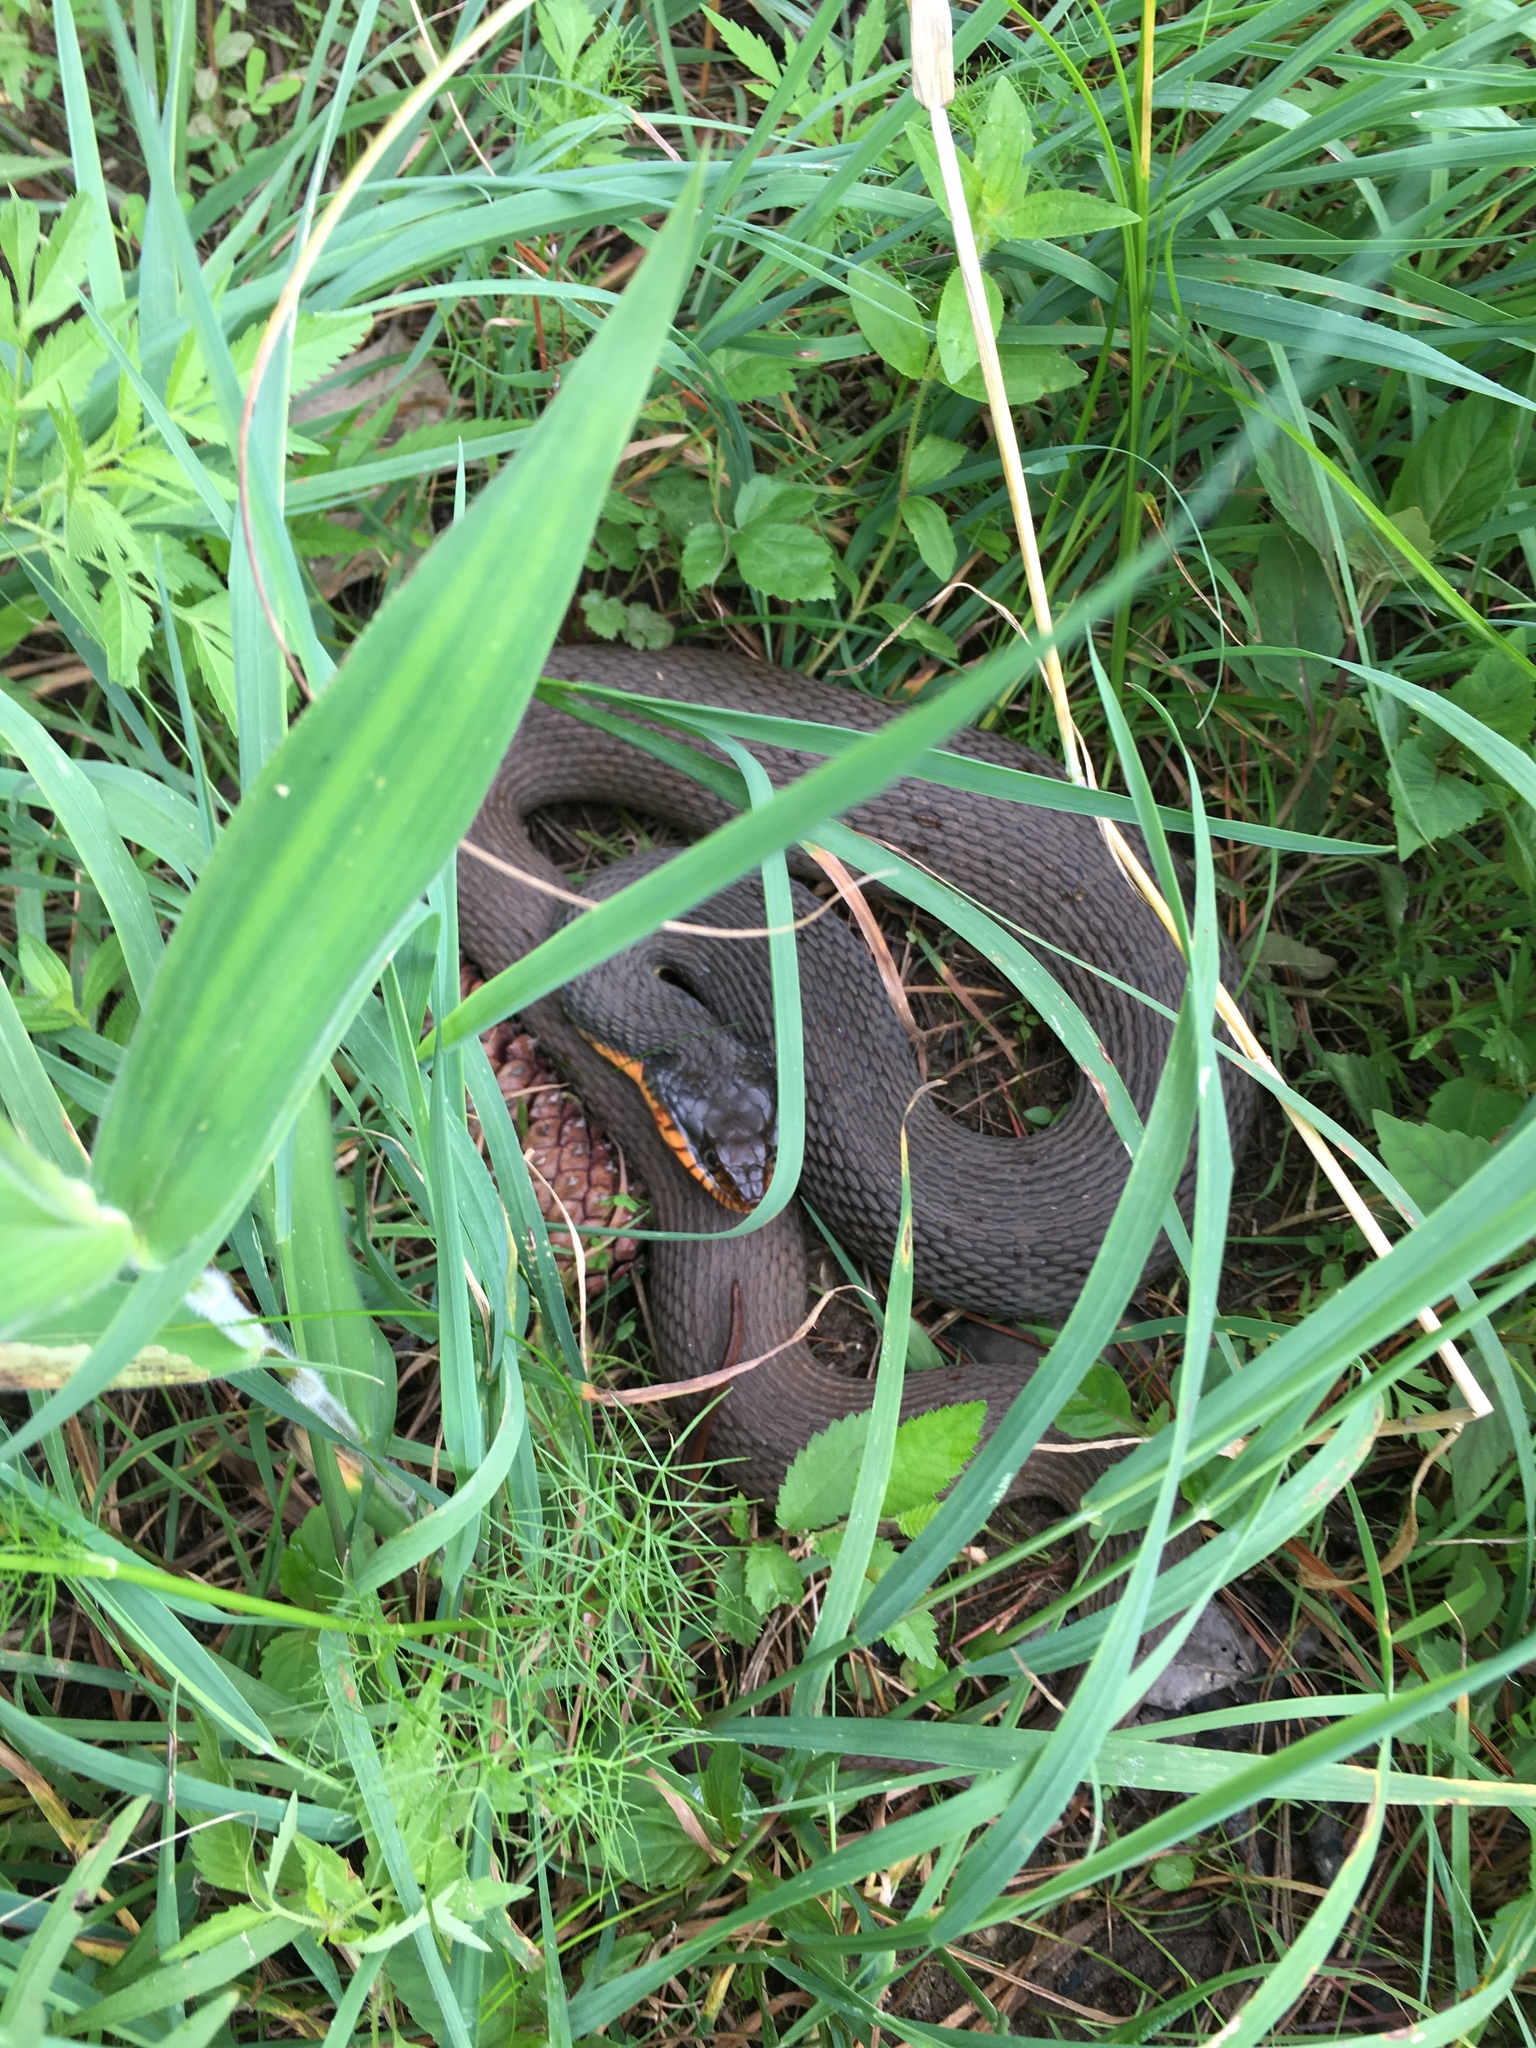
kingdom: Animalia
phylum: Chordata
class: Squamata
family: Colubridae
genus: Nerodia
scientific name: Nerodia erythrogaster
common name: Plainbelly water snake
